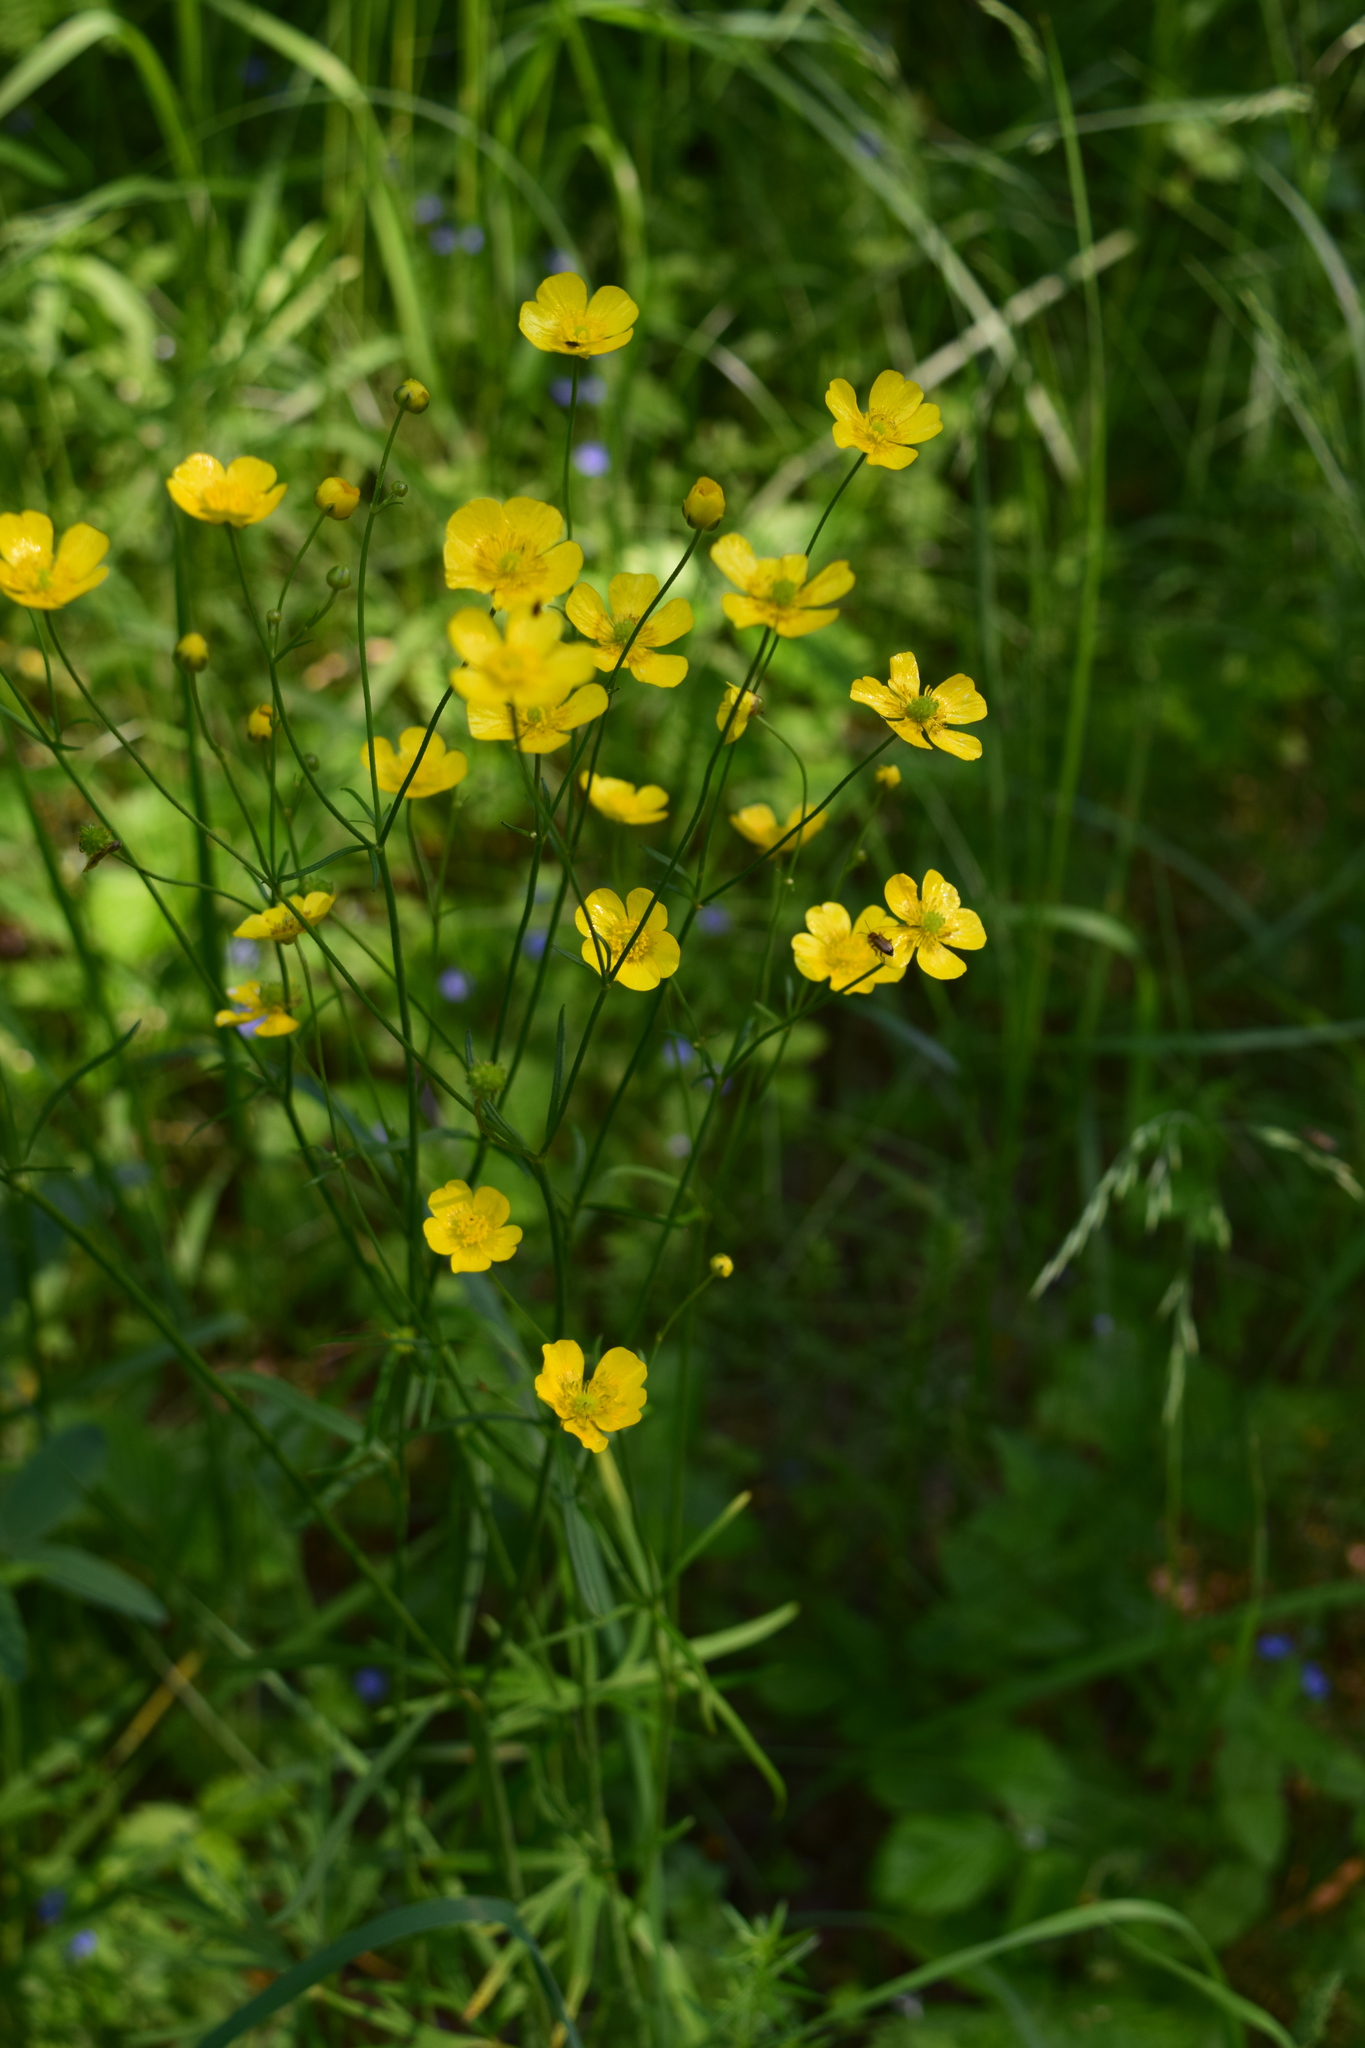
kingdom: Plantae
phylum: Tracheophyta
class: Magnoliopsida
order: Ranunculales
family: Ranunculaceae
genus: Ranunculus
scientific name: Ranunculus acris
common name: Meadow buttercup
